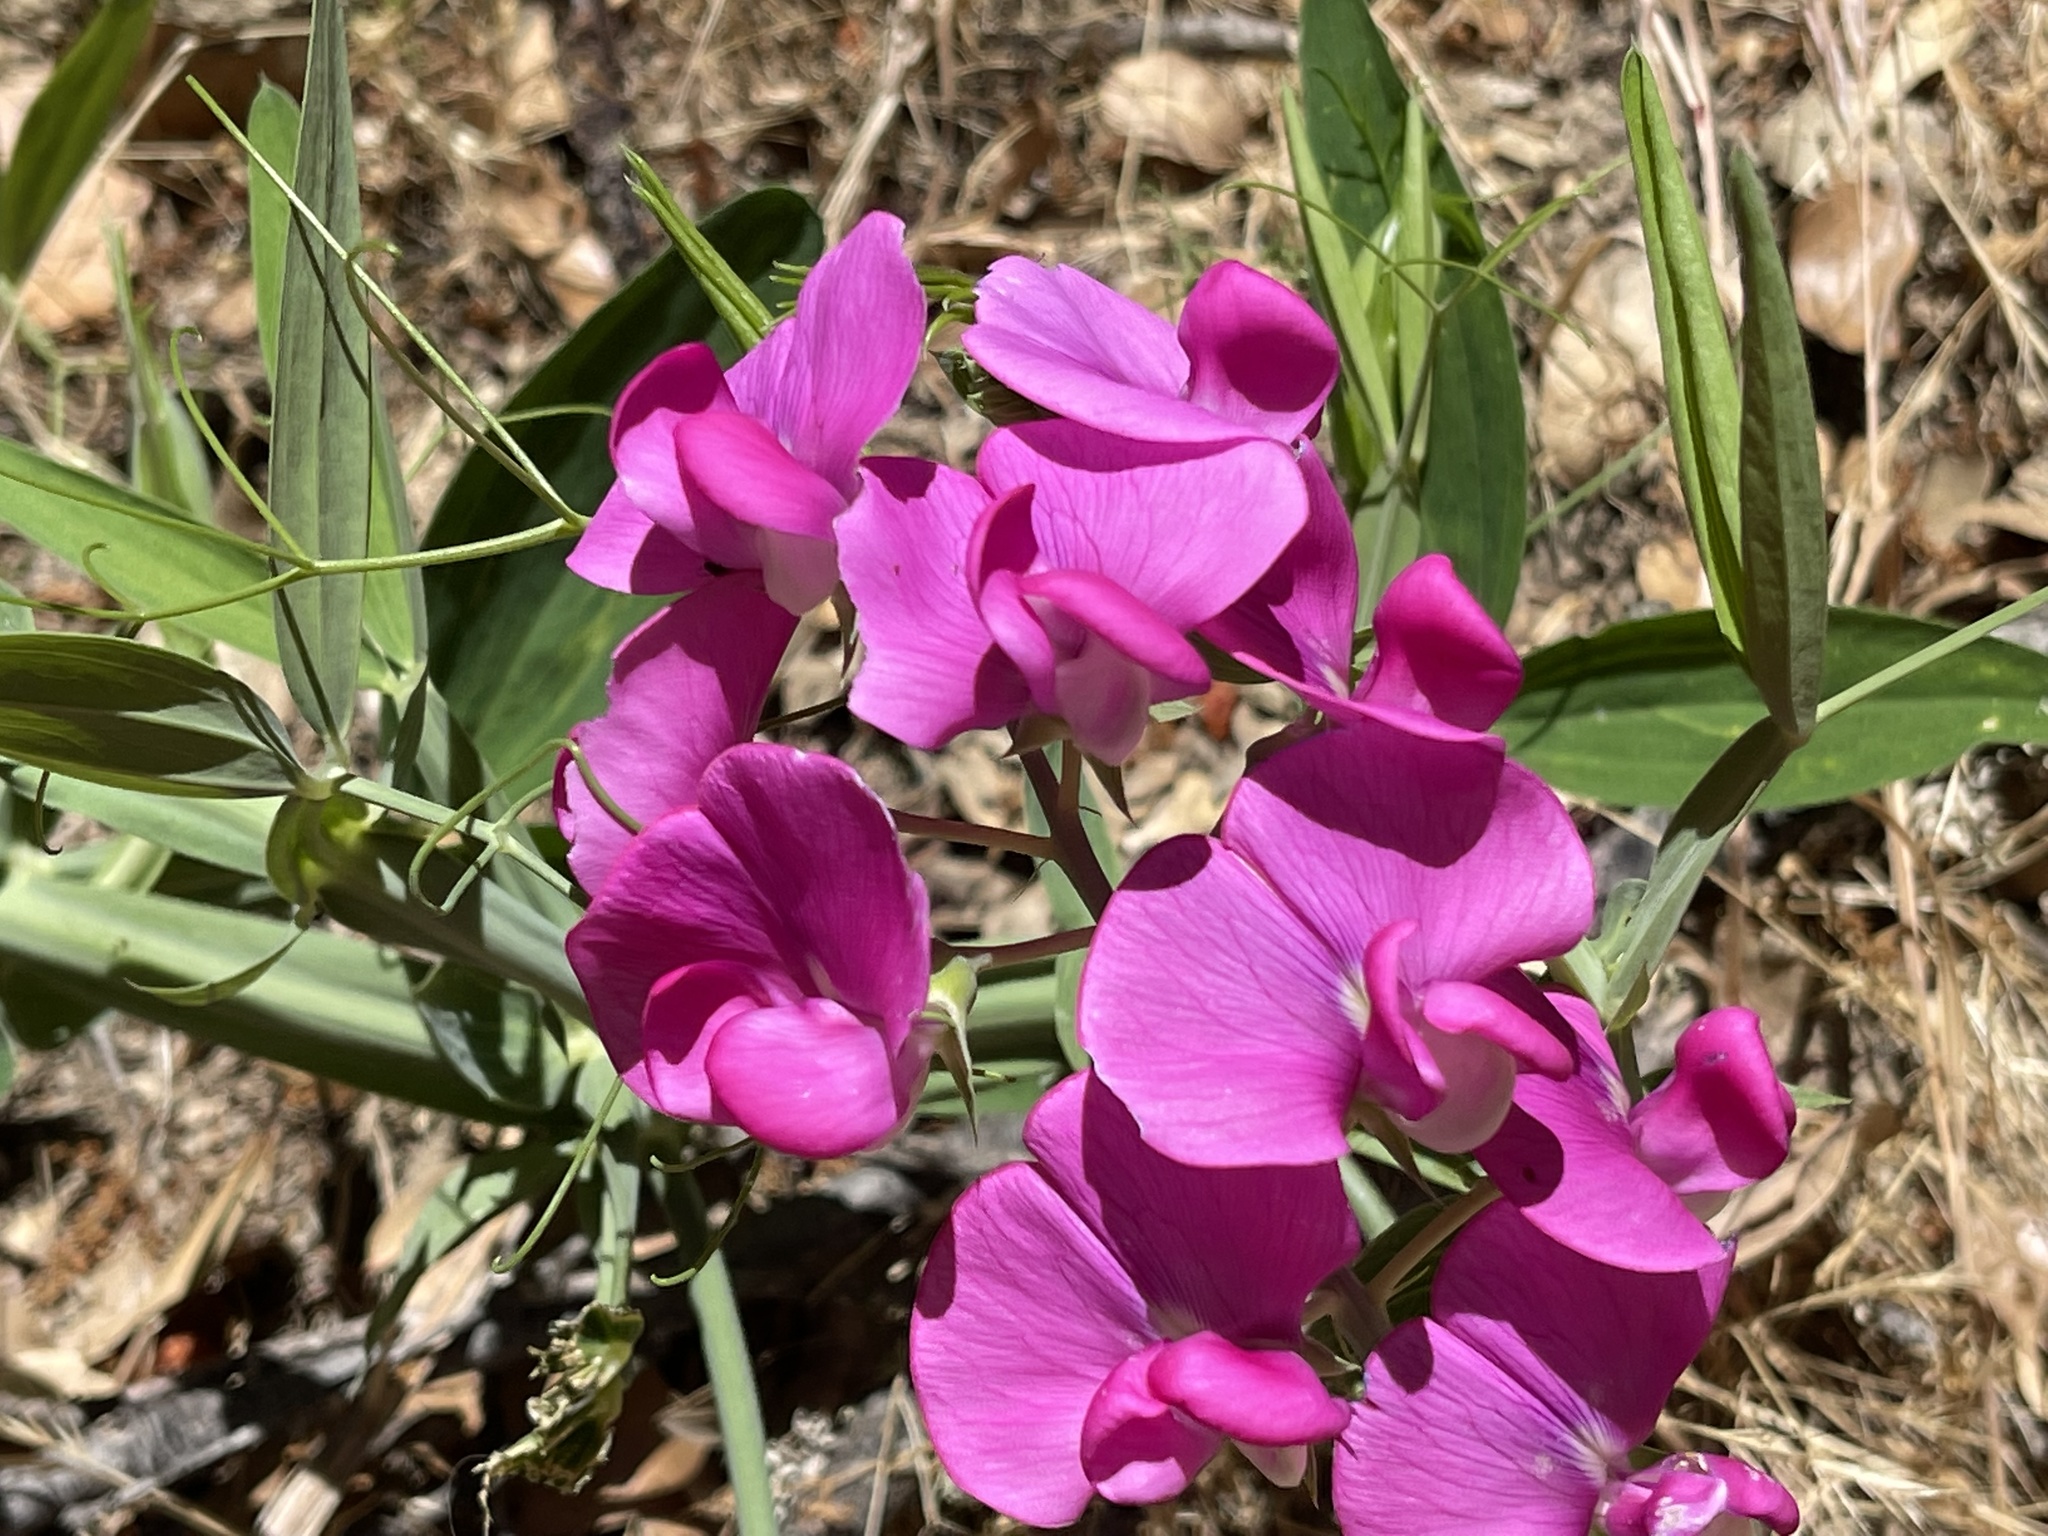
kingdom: Plantae
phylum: Tracheophyta
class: Magnoliopsida
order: Fabales
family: Fabaceae
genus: Lathyrus
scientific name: Lathyrus latifolius
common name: Perennial pea
